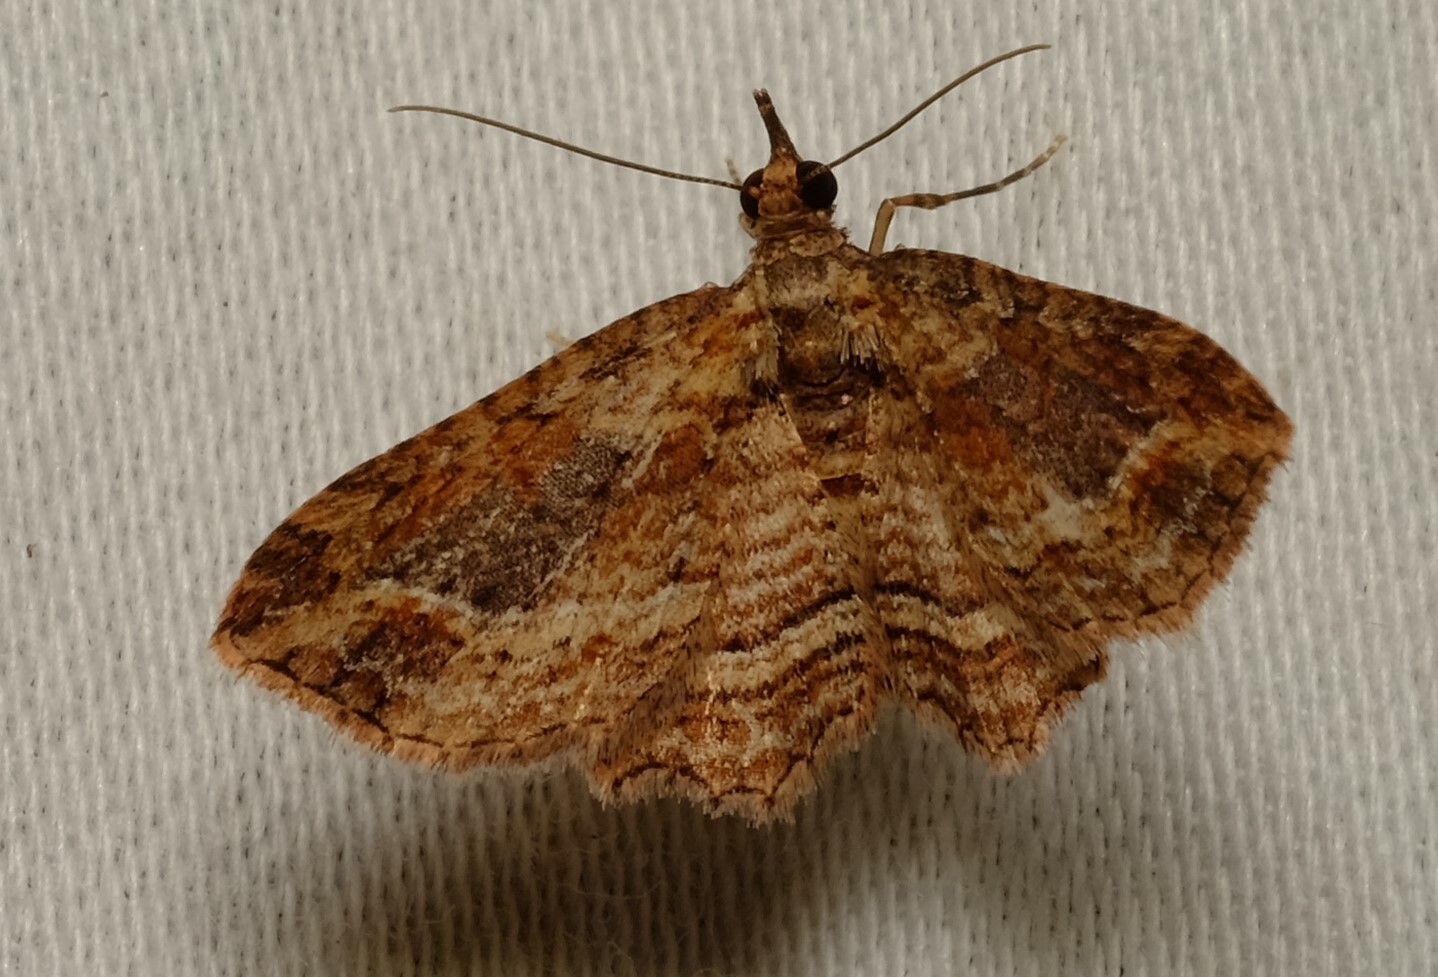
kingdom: Animalia
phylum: Arthropoda
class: Insecta
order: Lepidoptera
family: Geometridae
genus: Chloroclystis
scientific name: Chloroclystis filata
